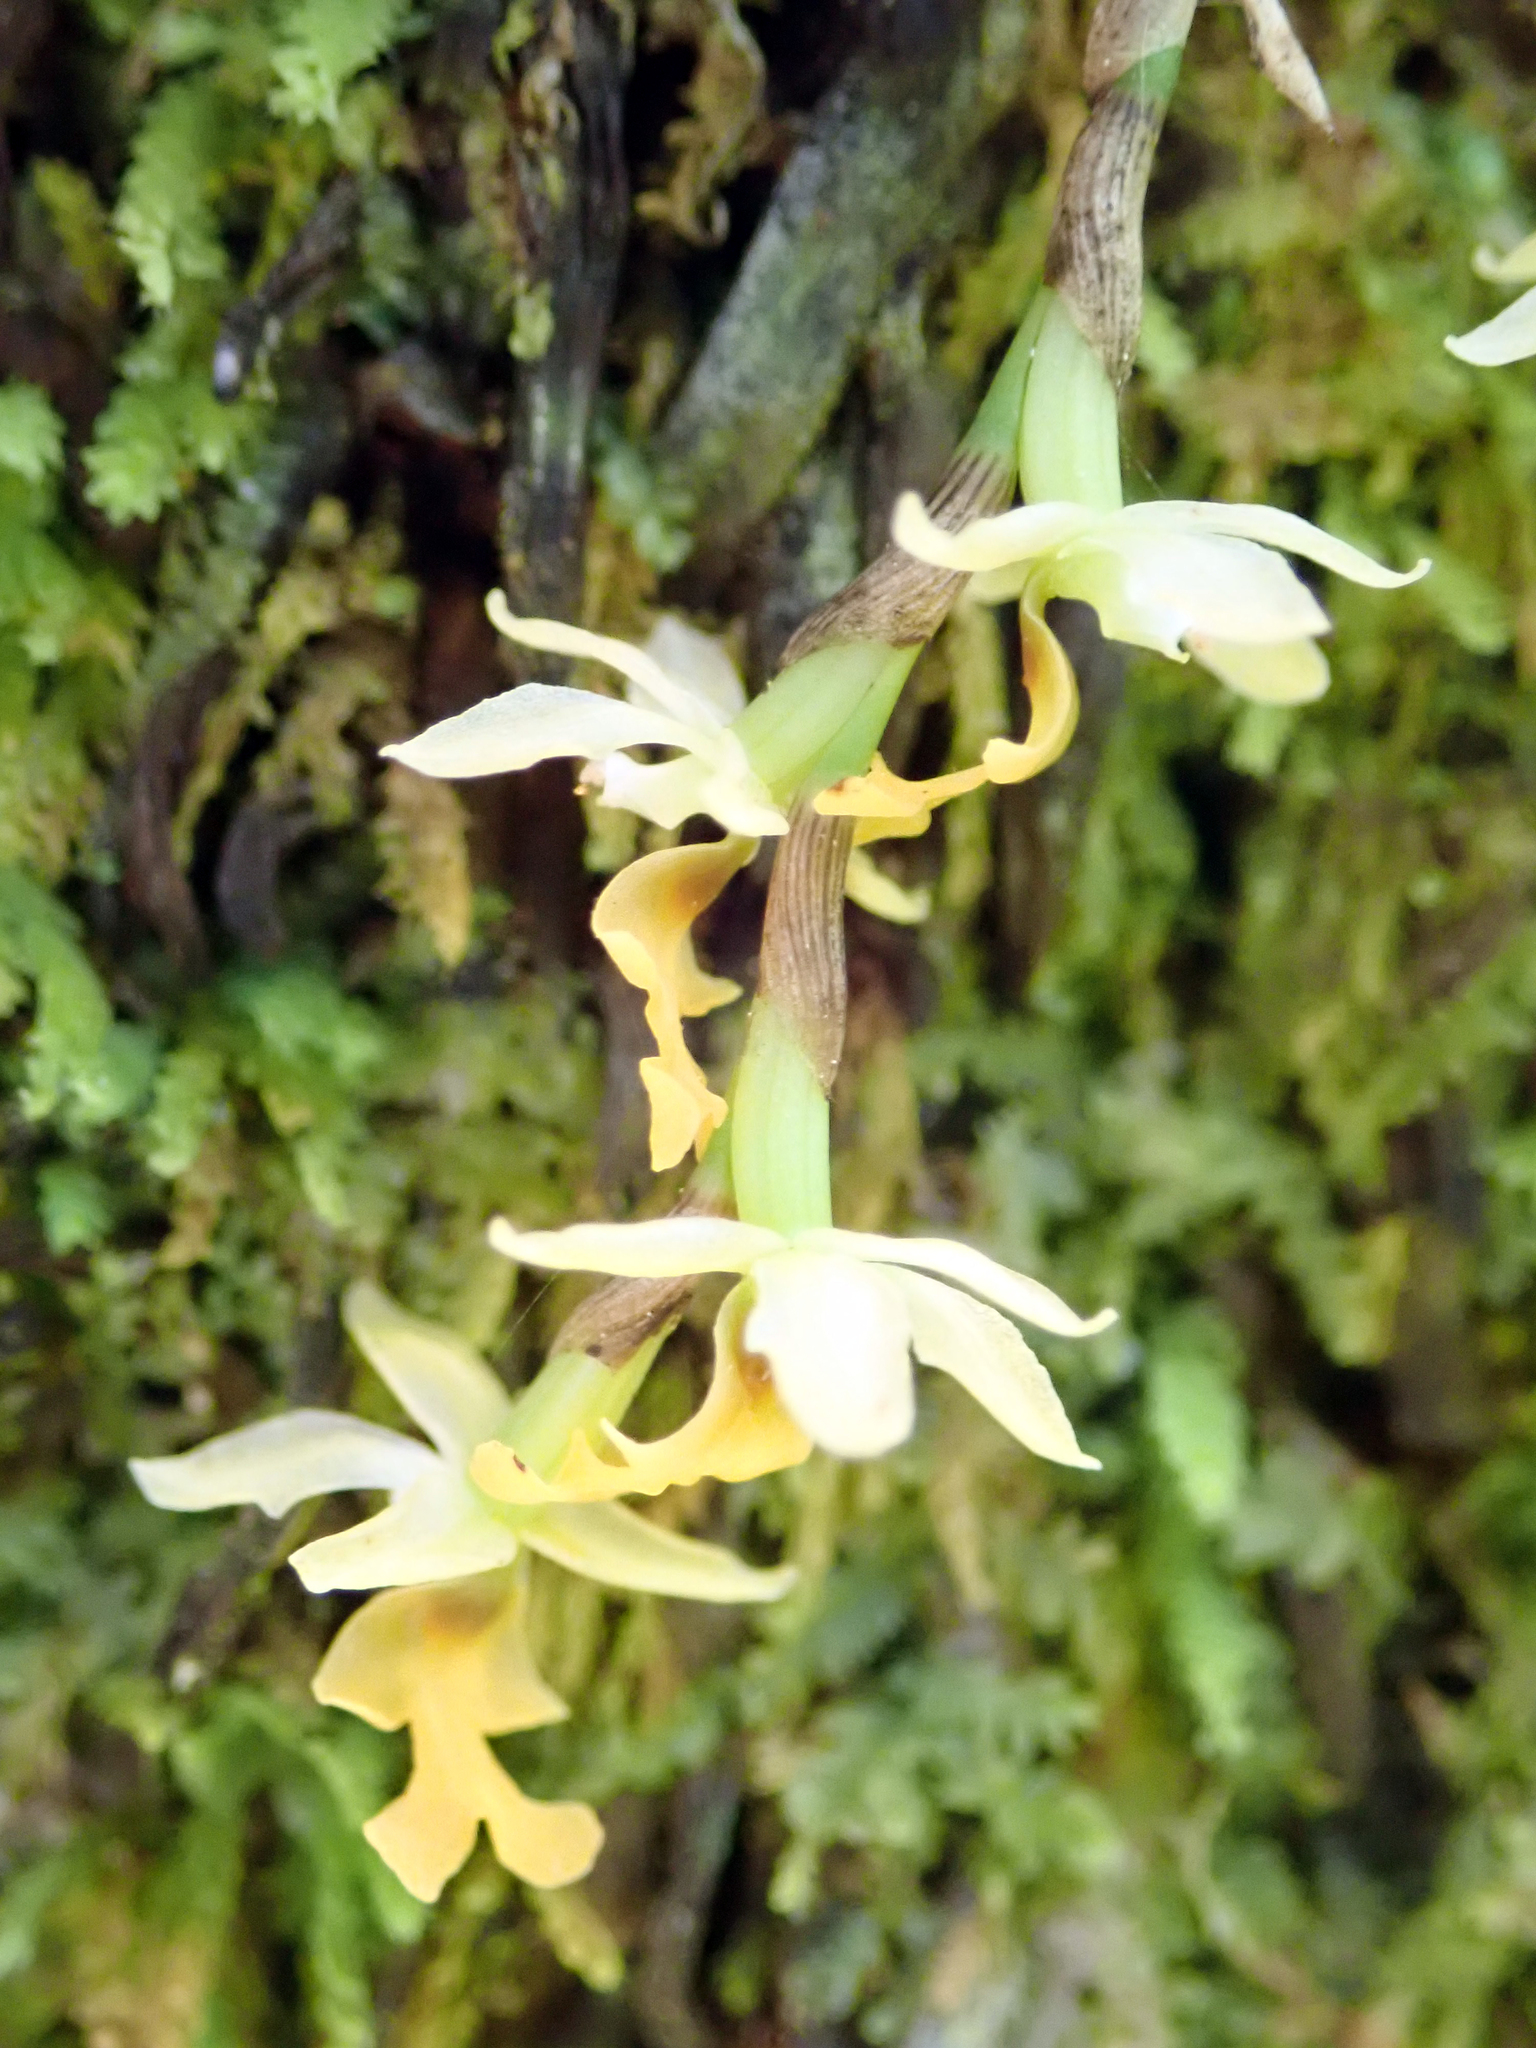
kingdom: Plantae
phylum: Tracheophyta
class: Liliopsida
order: Asparagales
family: Orchidaceae
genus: Earina
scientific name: Earina mucronata
